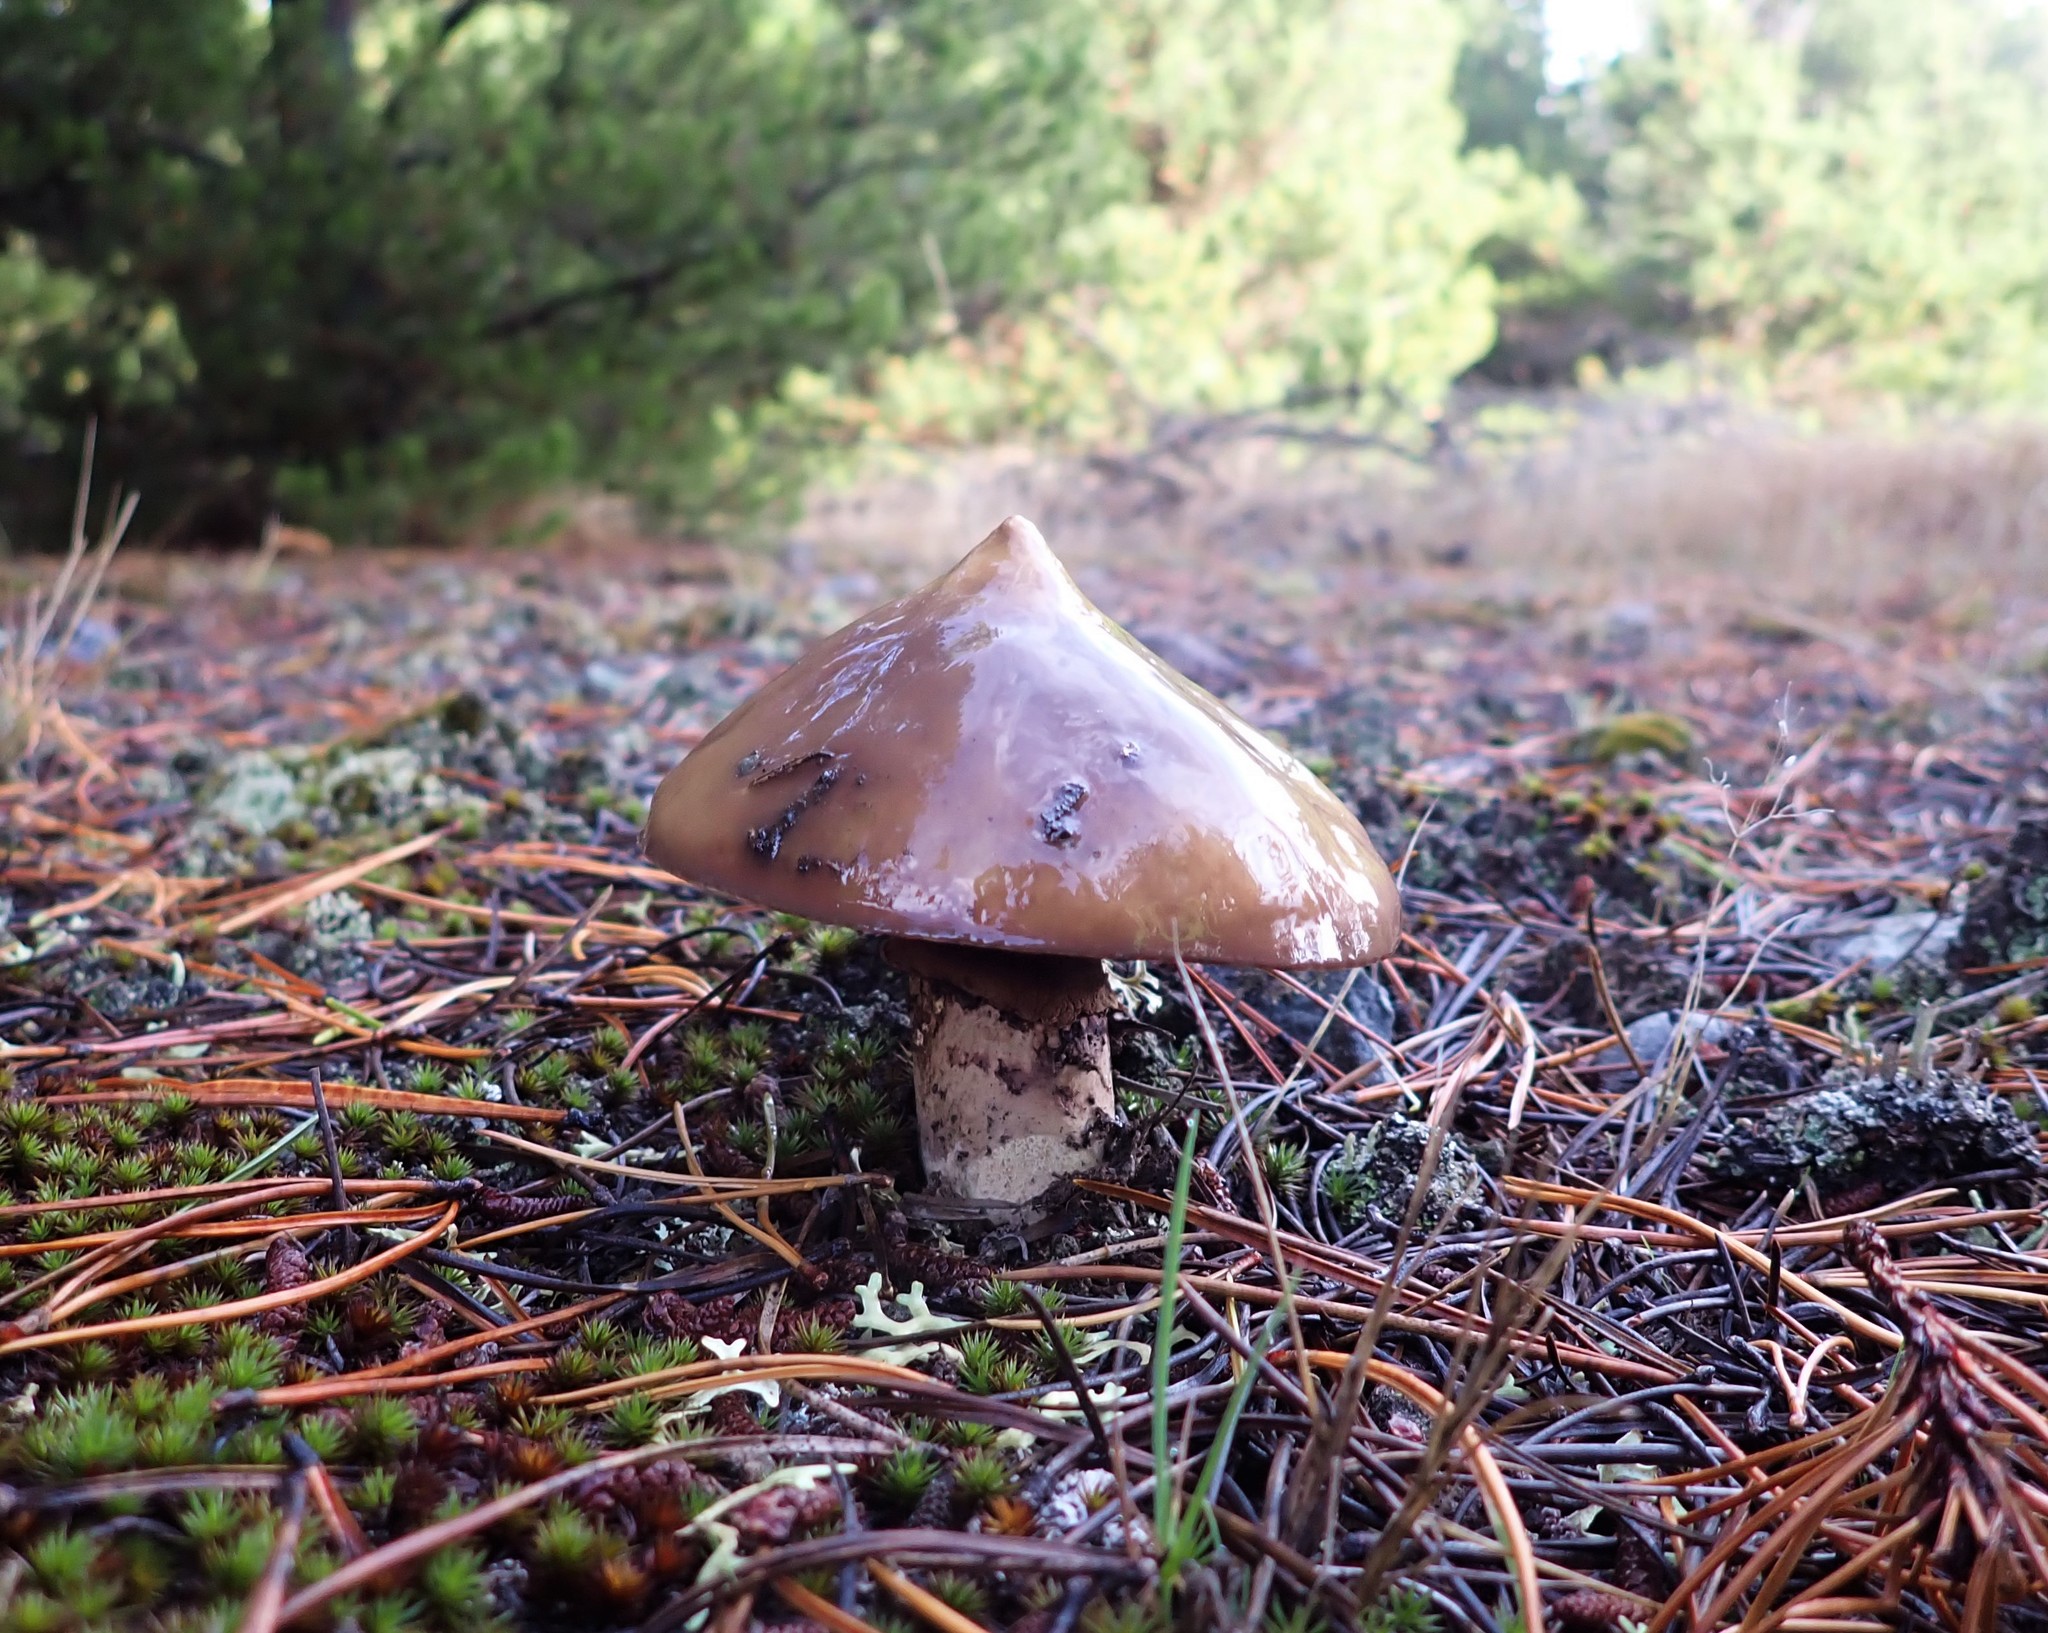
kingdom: Fungi
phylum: Basidiomycota
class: Agaricomycetes
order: Boletales
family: Suillaceae
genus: Suillus
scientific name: Suillus luteus
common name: Slippery jack
